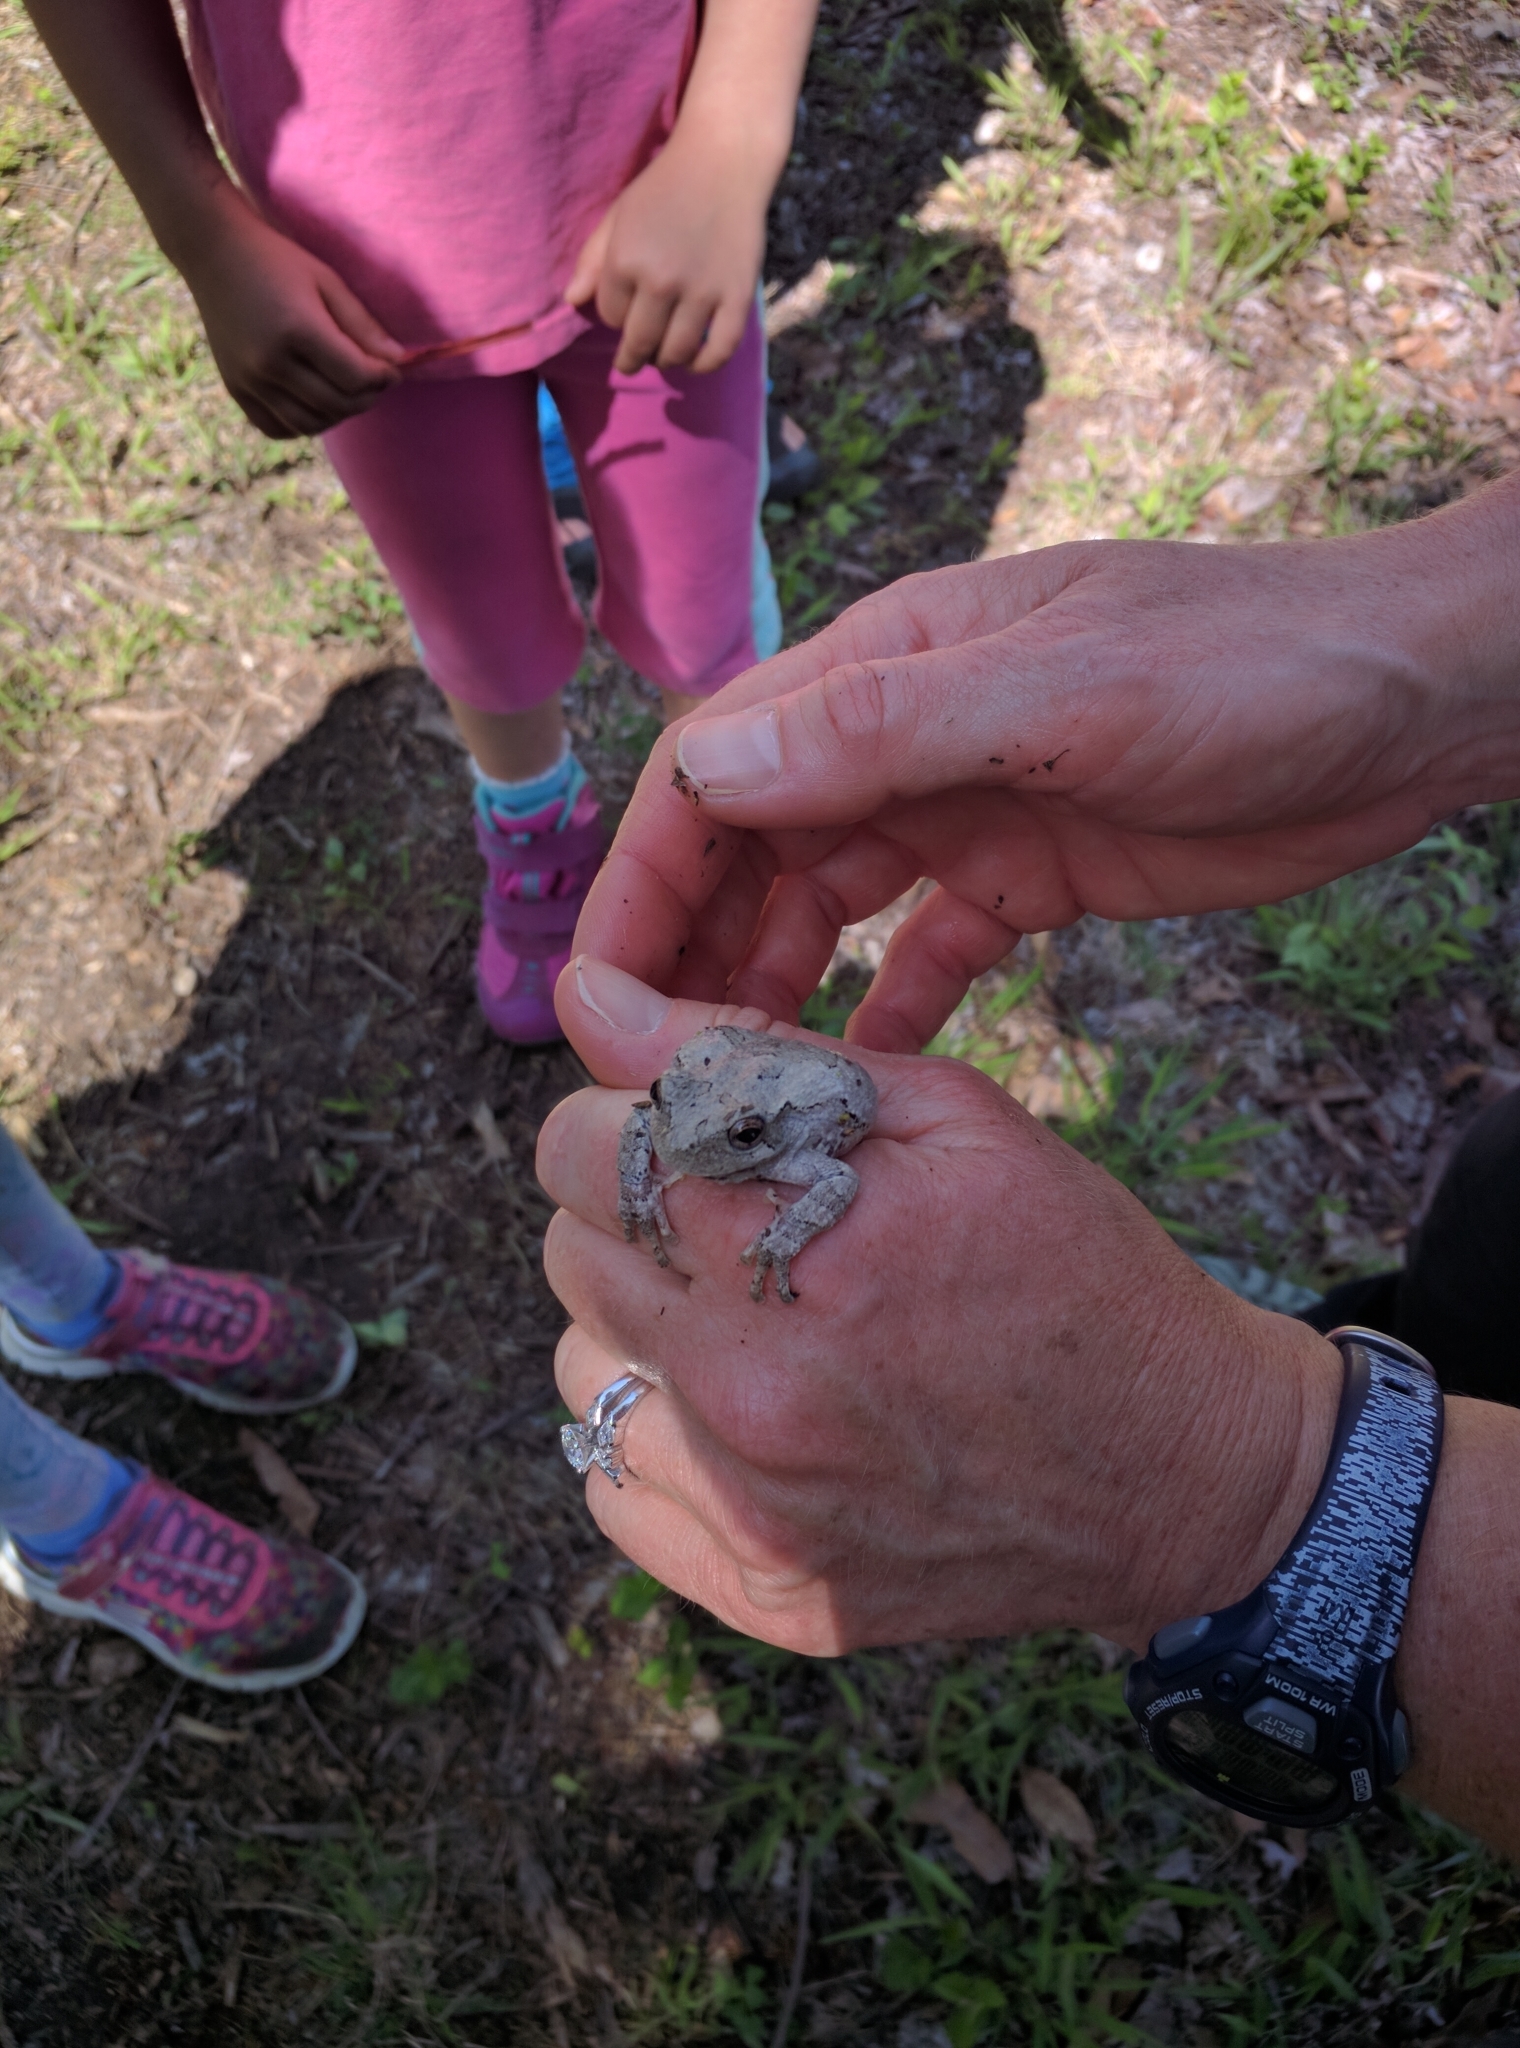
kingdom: Animalia
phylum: Chordata
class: Amphibia
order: Anura
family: Hylidae
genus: Hyla
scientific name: Hyla
